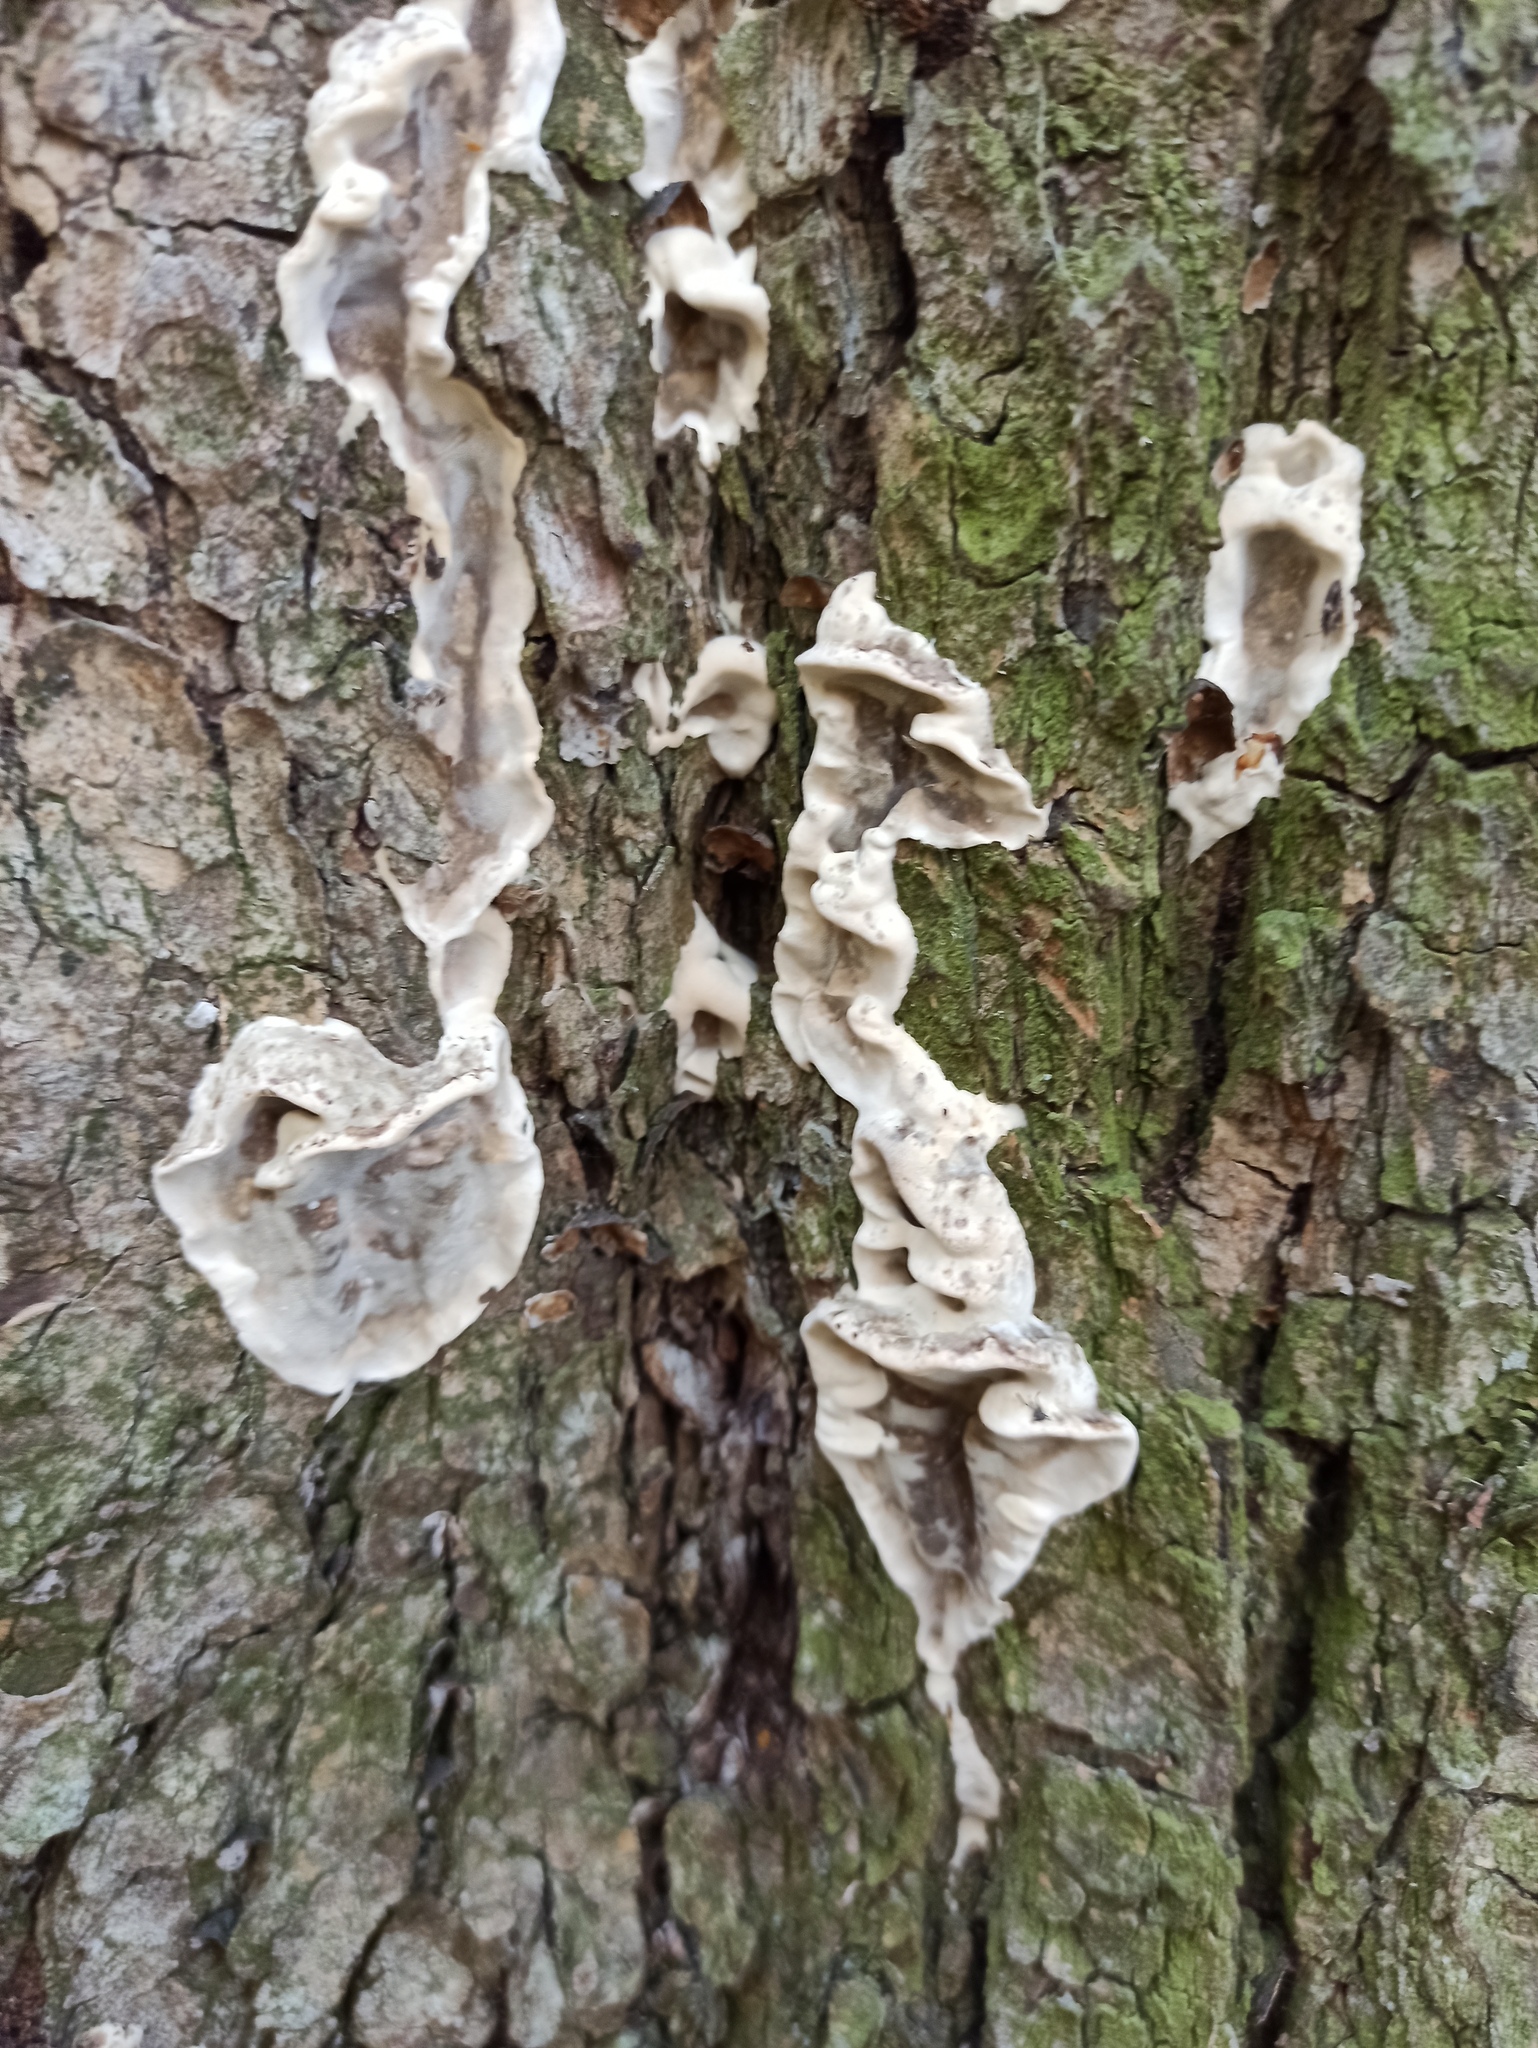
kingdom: Fungi
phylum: Basidiomycota
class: Agaricomycetes
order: Polyporales
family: Phanerochaetaceae
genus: Bjerkandera
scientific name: Bjerkandera adusta
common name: Smoky bracket
